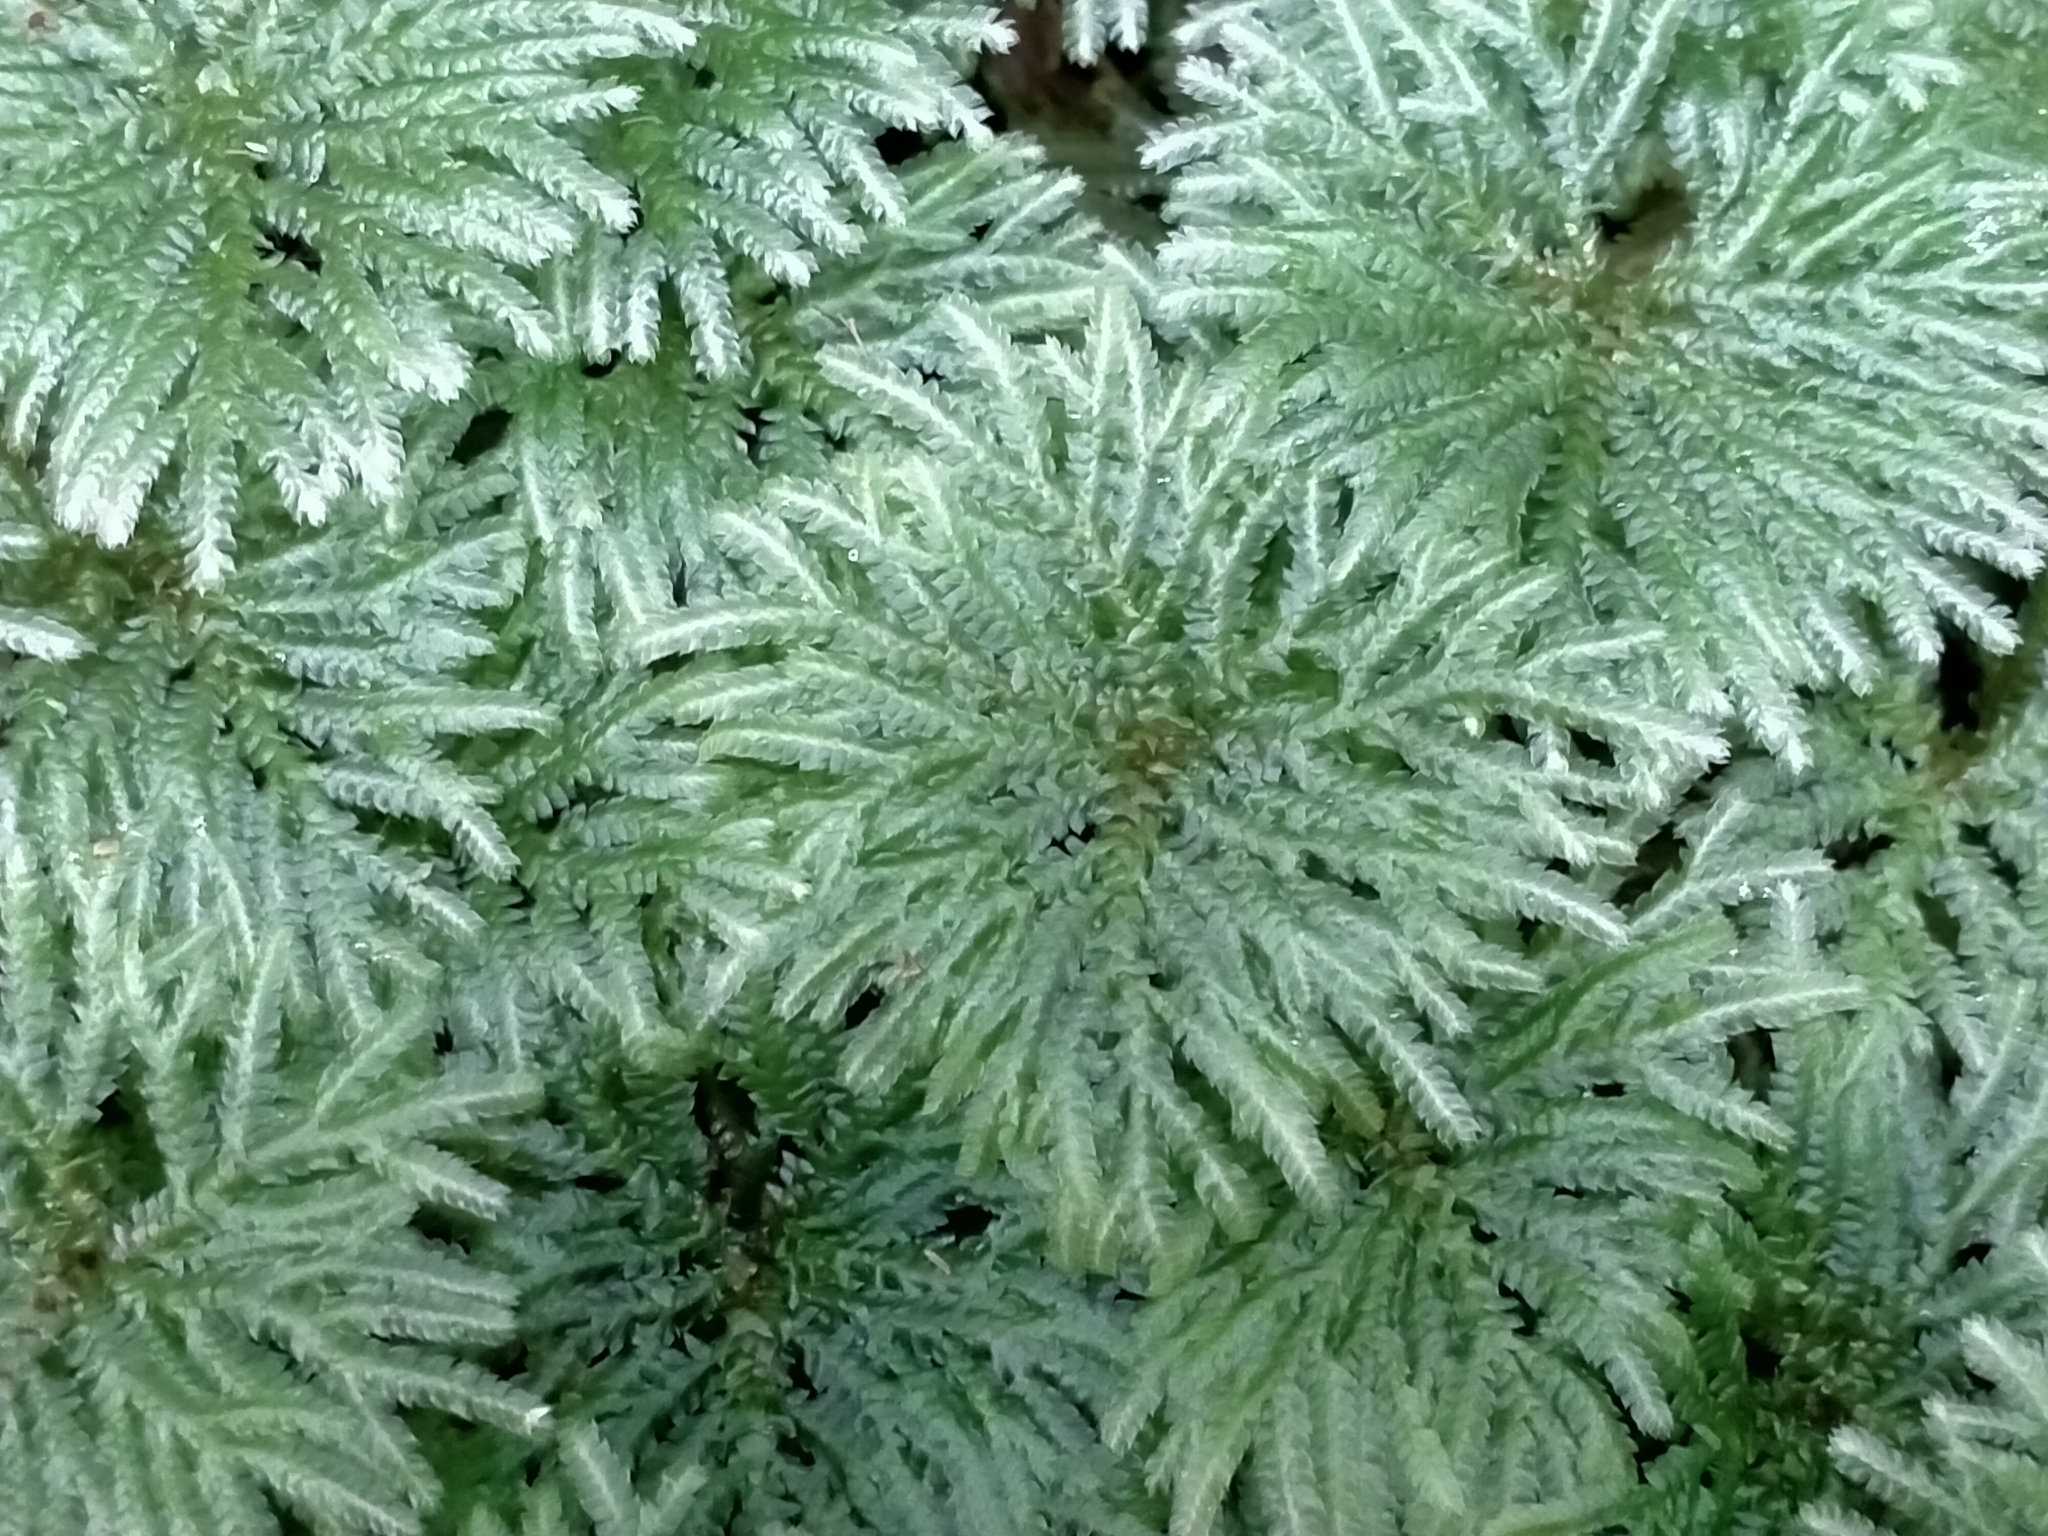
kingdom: Plantae
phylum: Bryophyta
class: Bryopsida
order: Hypopterygiales
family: Hypopterygiaceae
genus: Canalohypopterygium
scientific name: Canalohypopterygium tamariscinum
